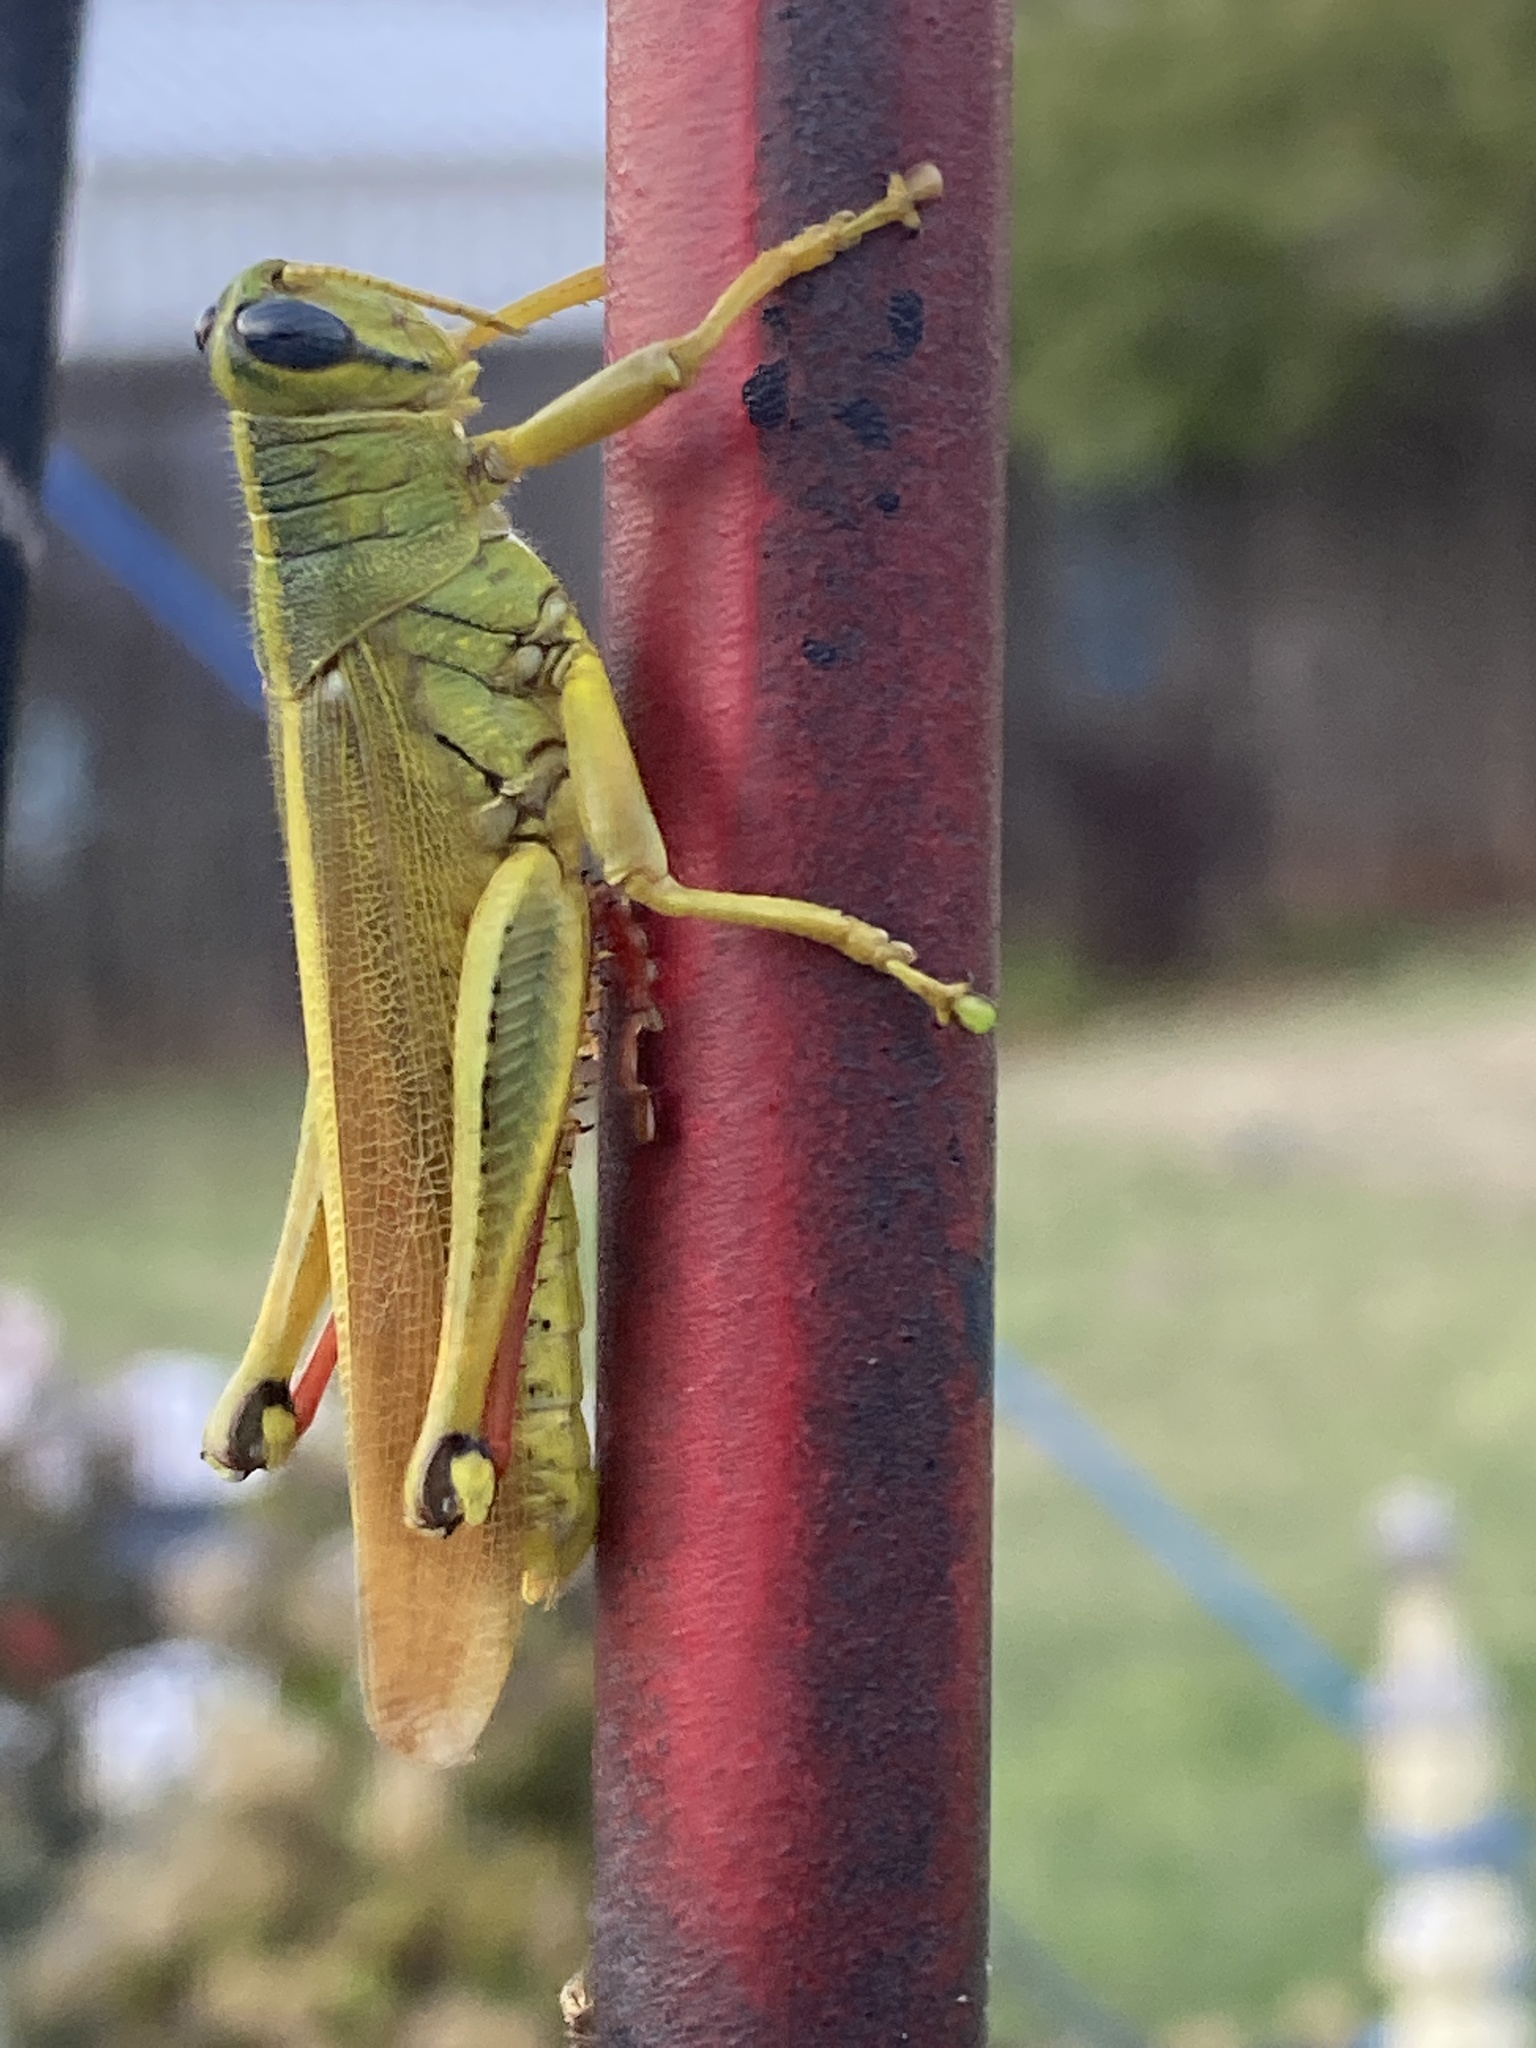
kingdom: Animalia
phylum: Arthropoda
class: Insecta
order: Orthoptera
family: Acrididae
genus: Schistocerca
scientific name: Schistocerca lineata
